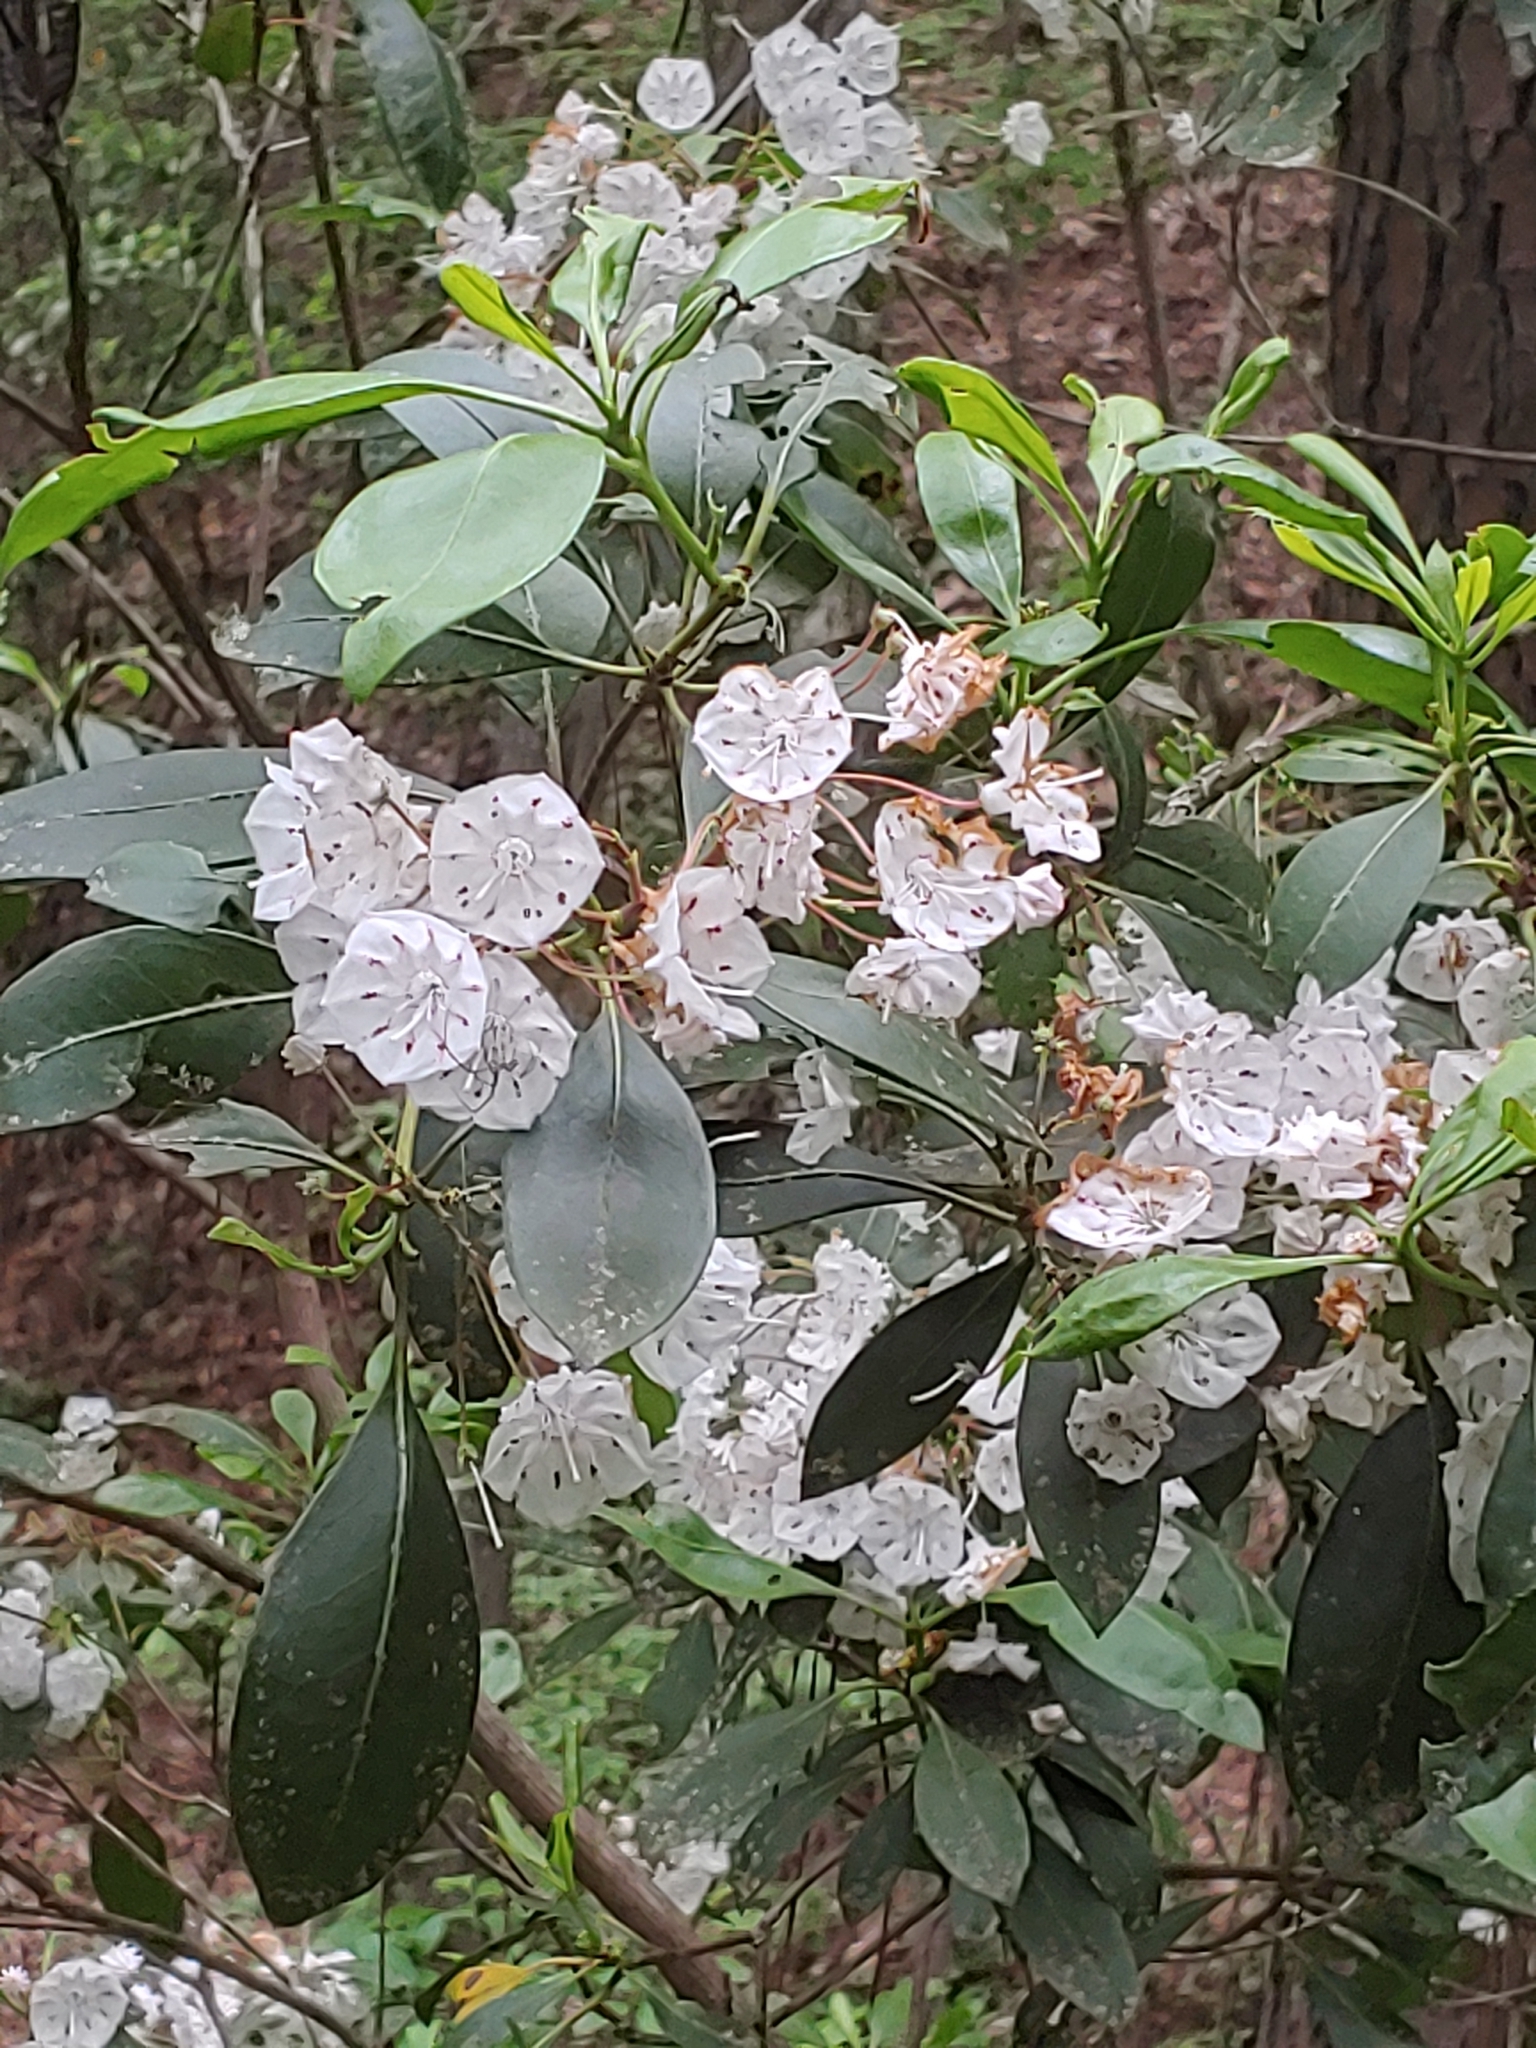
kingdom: Plantae
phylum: Tracheophyta
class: Magnoliopsida
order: Ericales
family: Ericaceae
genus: Kalmia
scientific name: Kalmia latifolia
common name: Mountain-laurel
